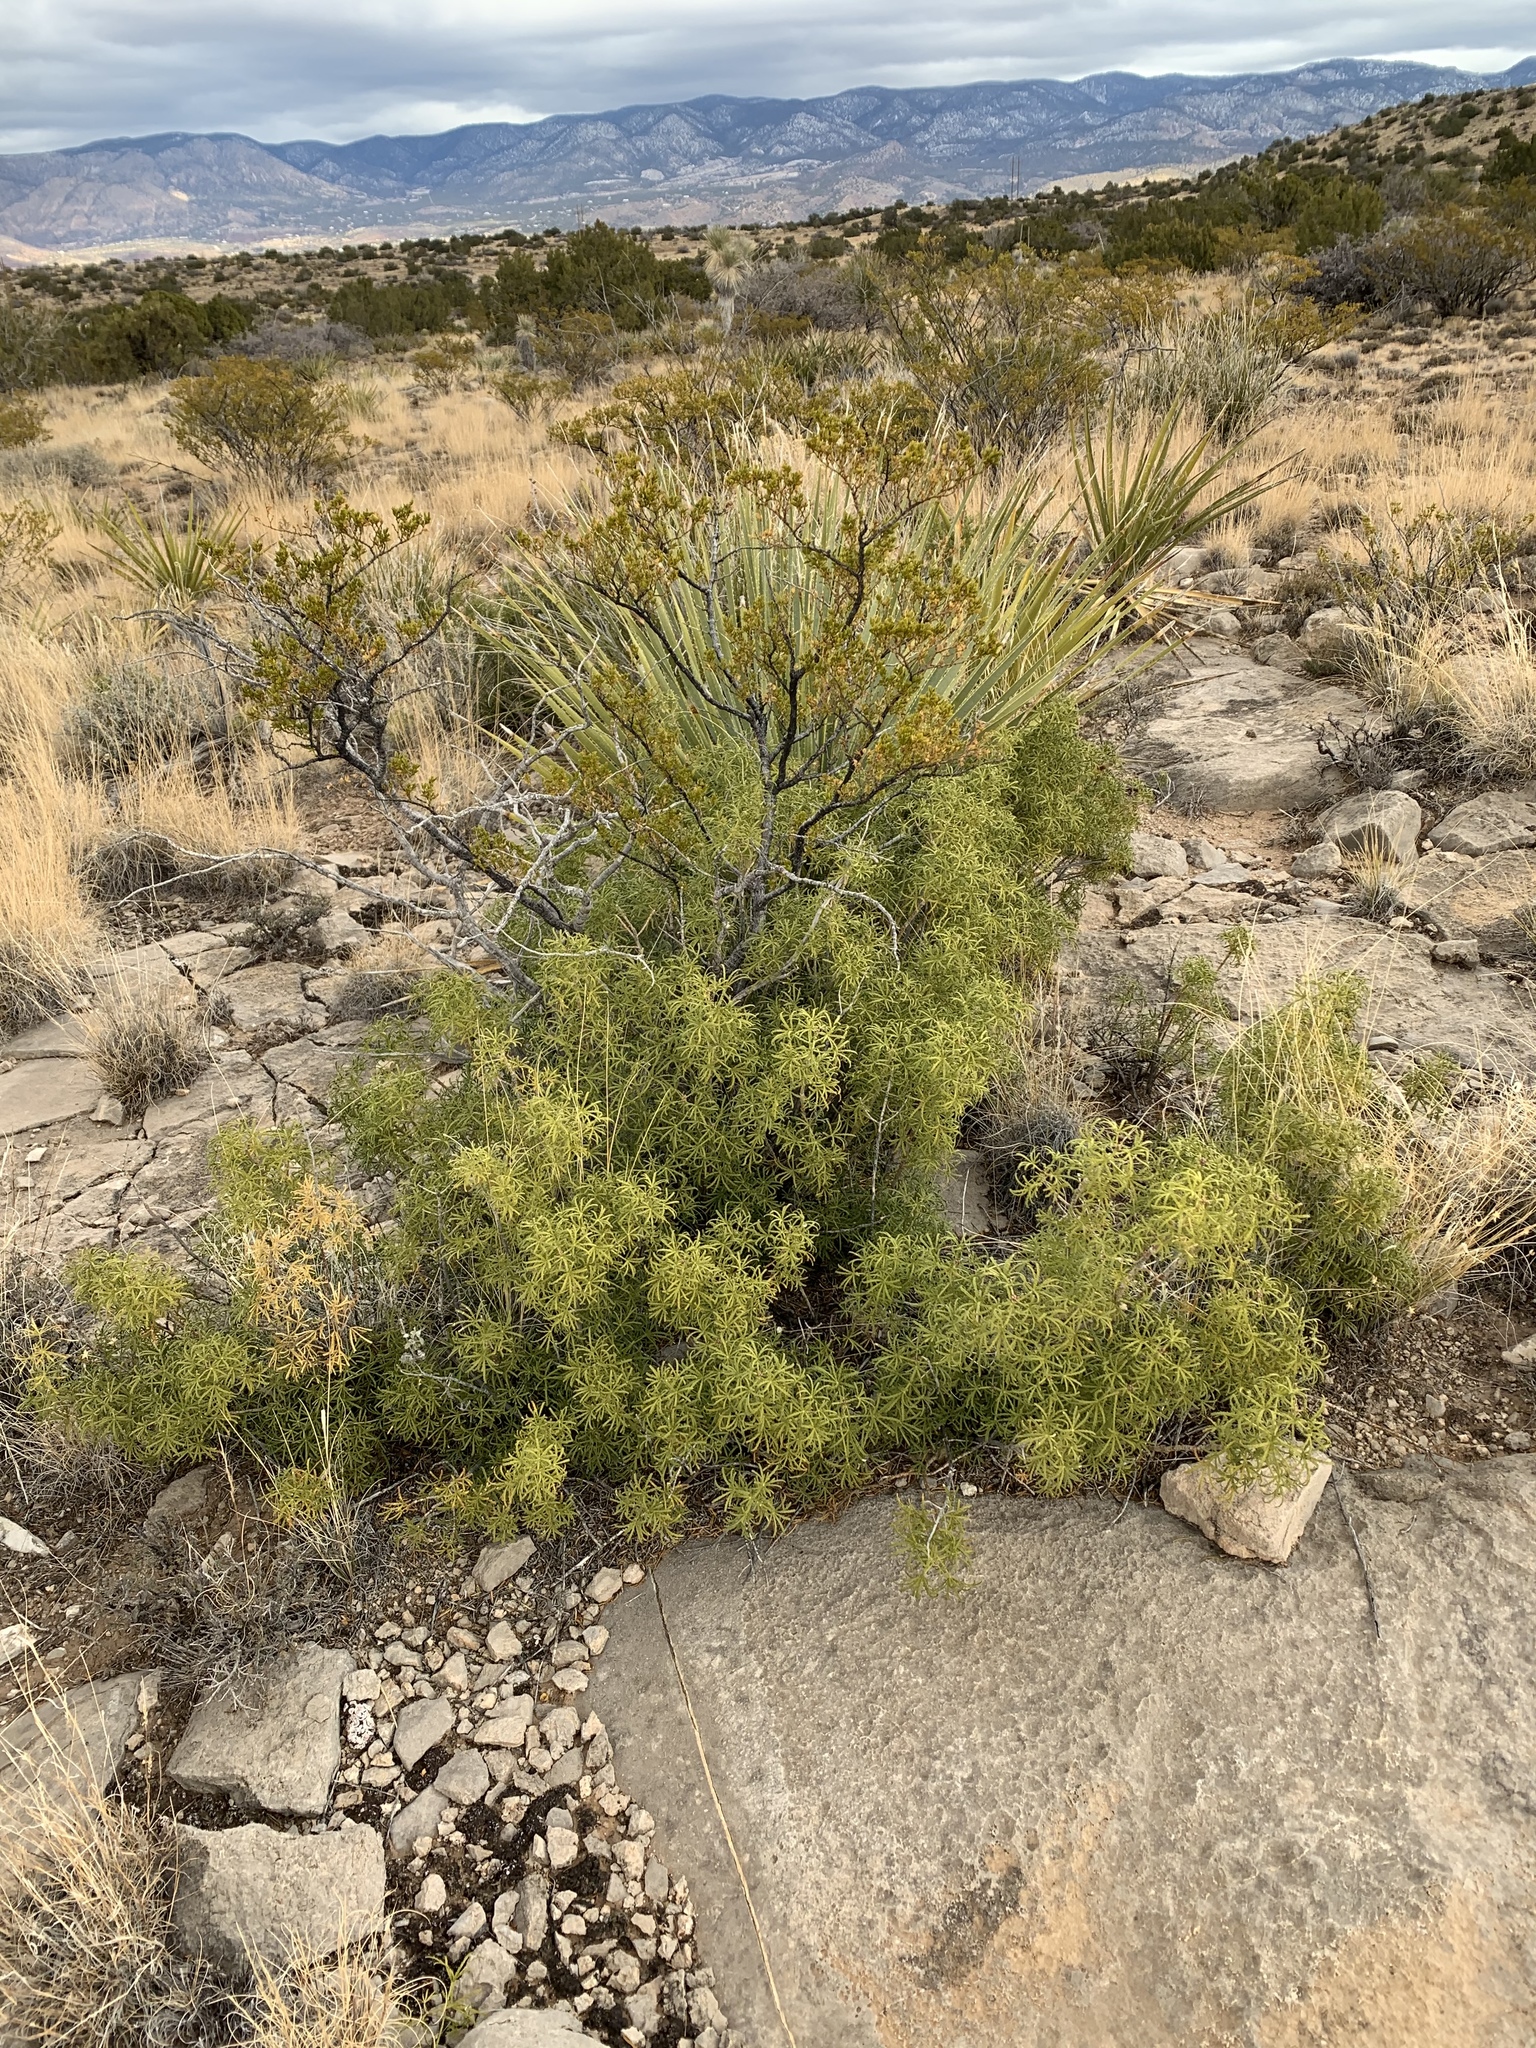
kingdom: Plantae
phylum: Tracheophyta
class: Magnoliopsida
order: Sapindales
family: Rutaceae
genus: Choisya
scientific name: Choisya dumosa
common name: Mexican-orange
